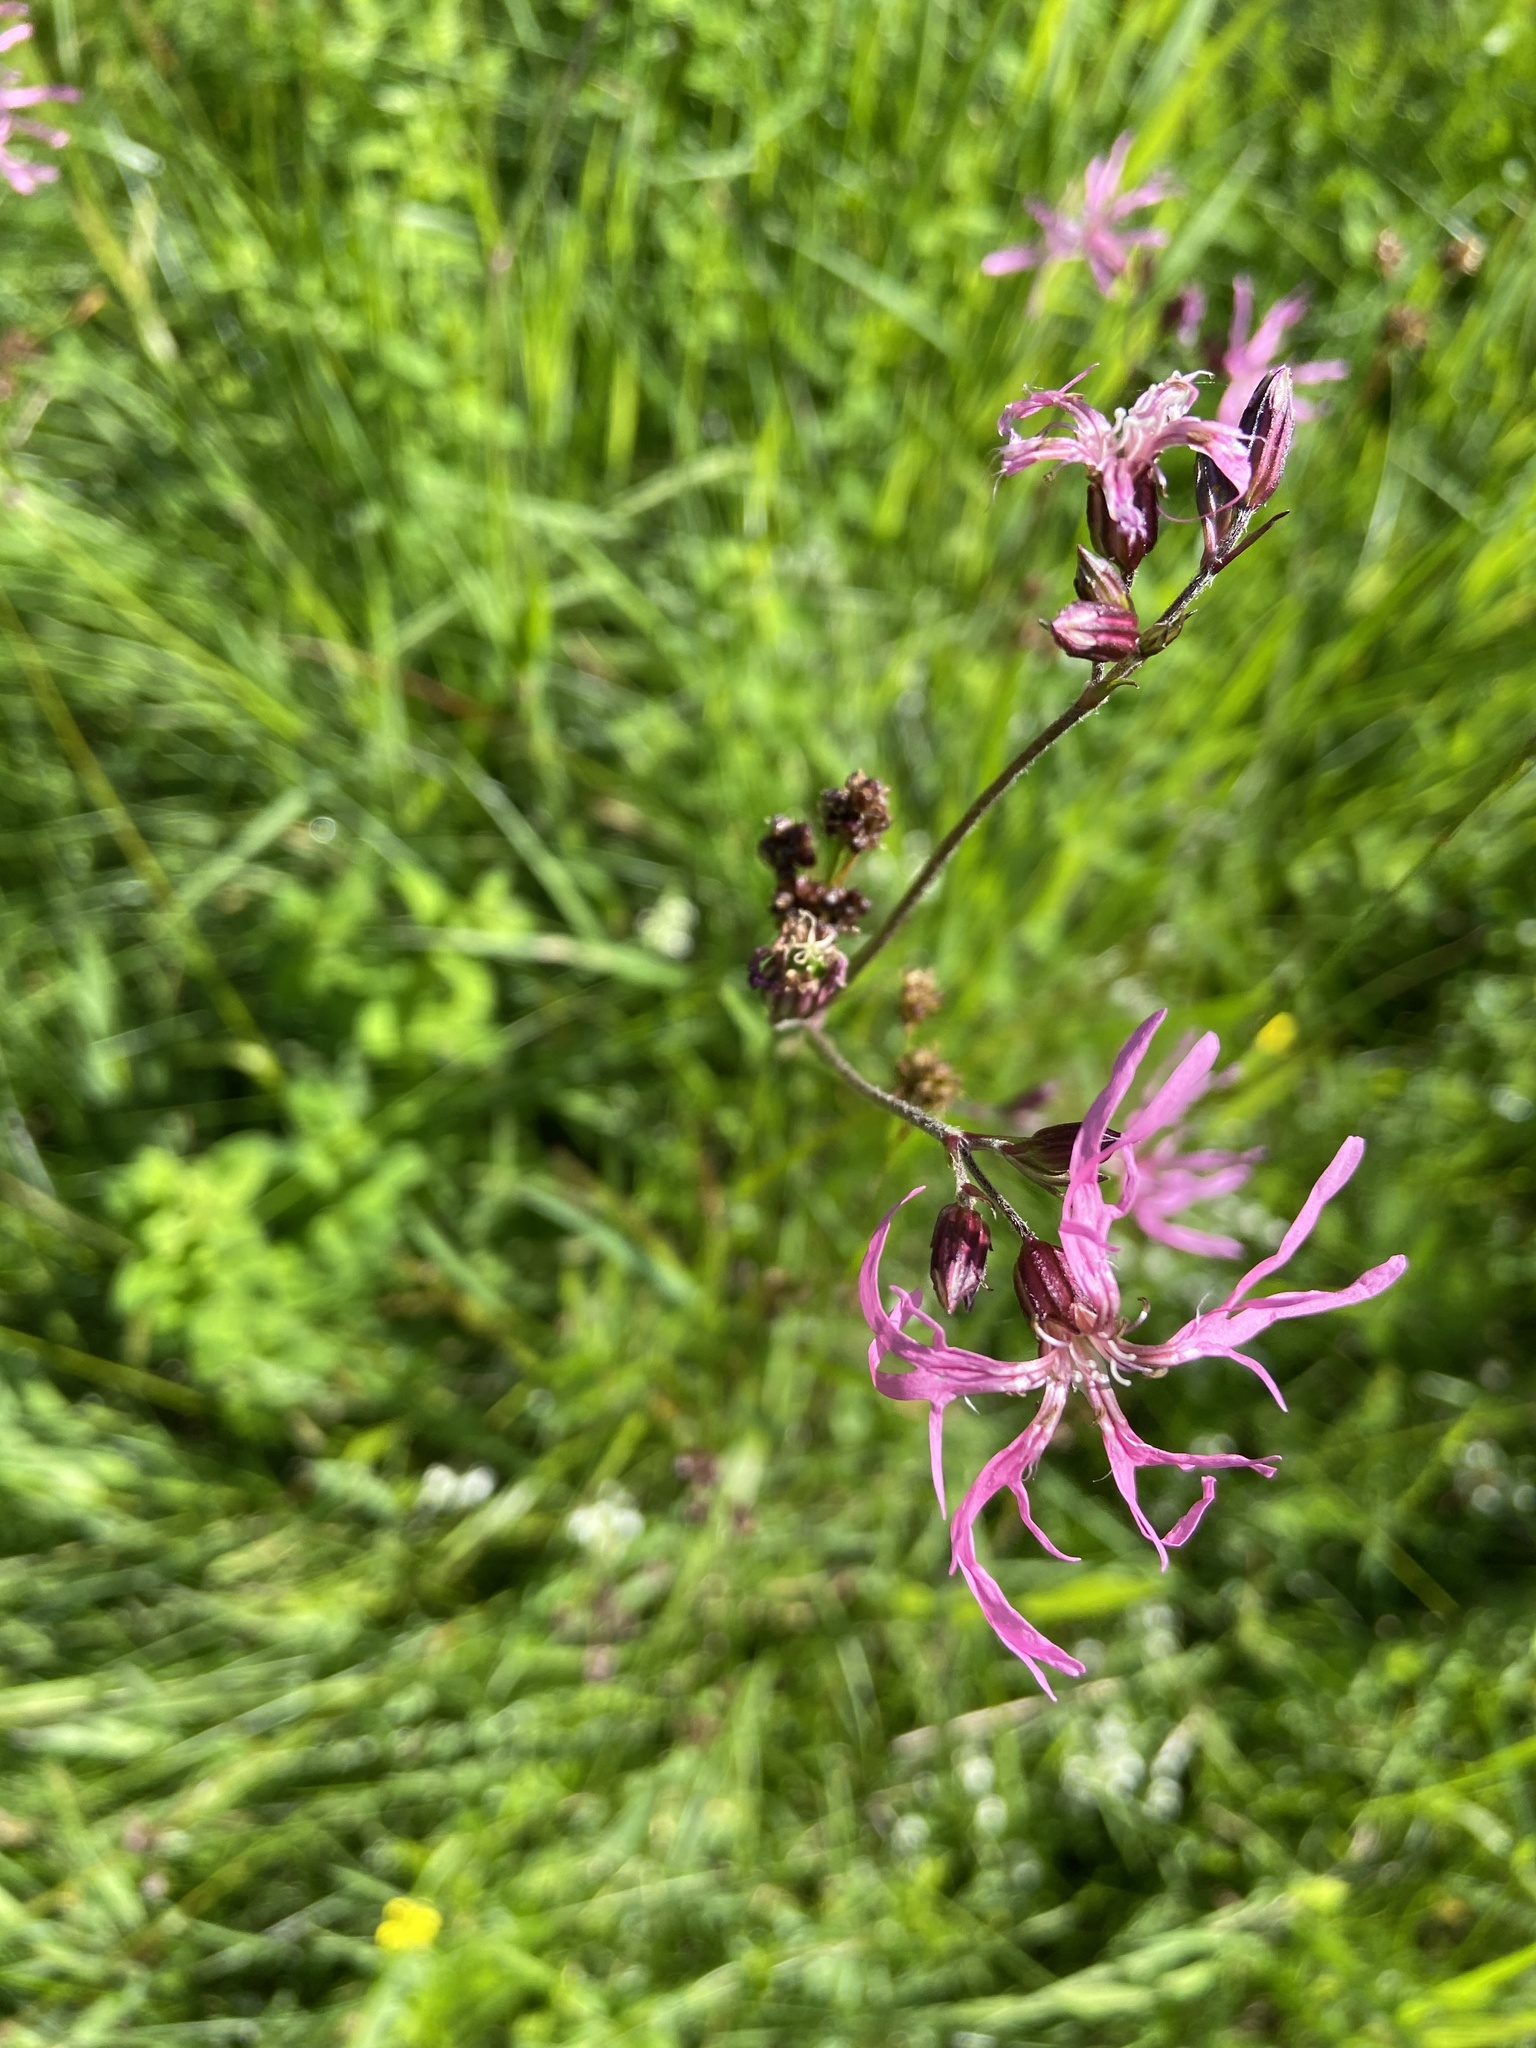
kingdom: Plantae
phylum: Tracheophyta
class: Magnoliopsida
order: Caryophyllales
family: Caryophyllaceae
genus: Silene
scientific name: Silene flos-cuculi
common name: Ragged-robin
